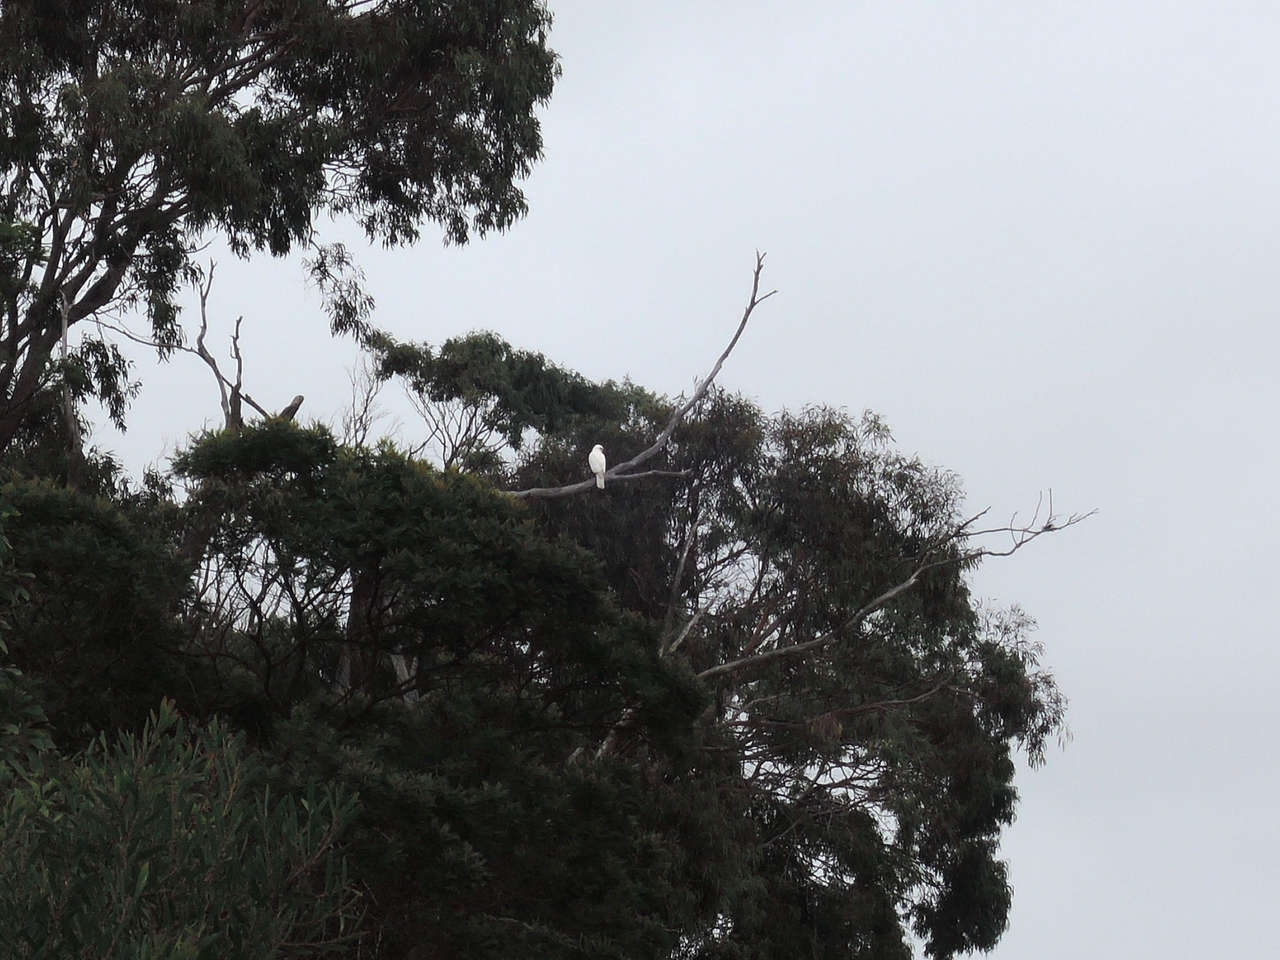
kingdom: Animalia
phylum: Chordata
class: Aves
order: Accipitriformes
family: Accipitridae
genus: Accipiter
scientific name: Accipiter novaehollandiae
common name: Grey goshawk
